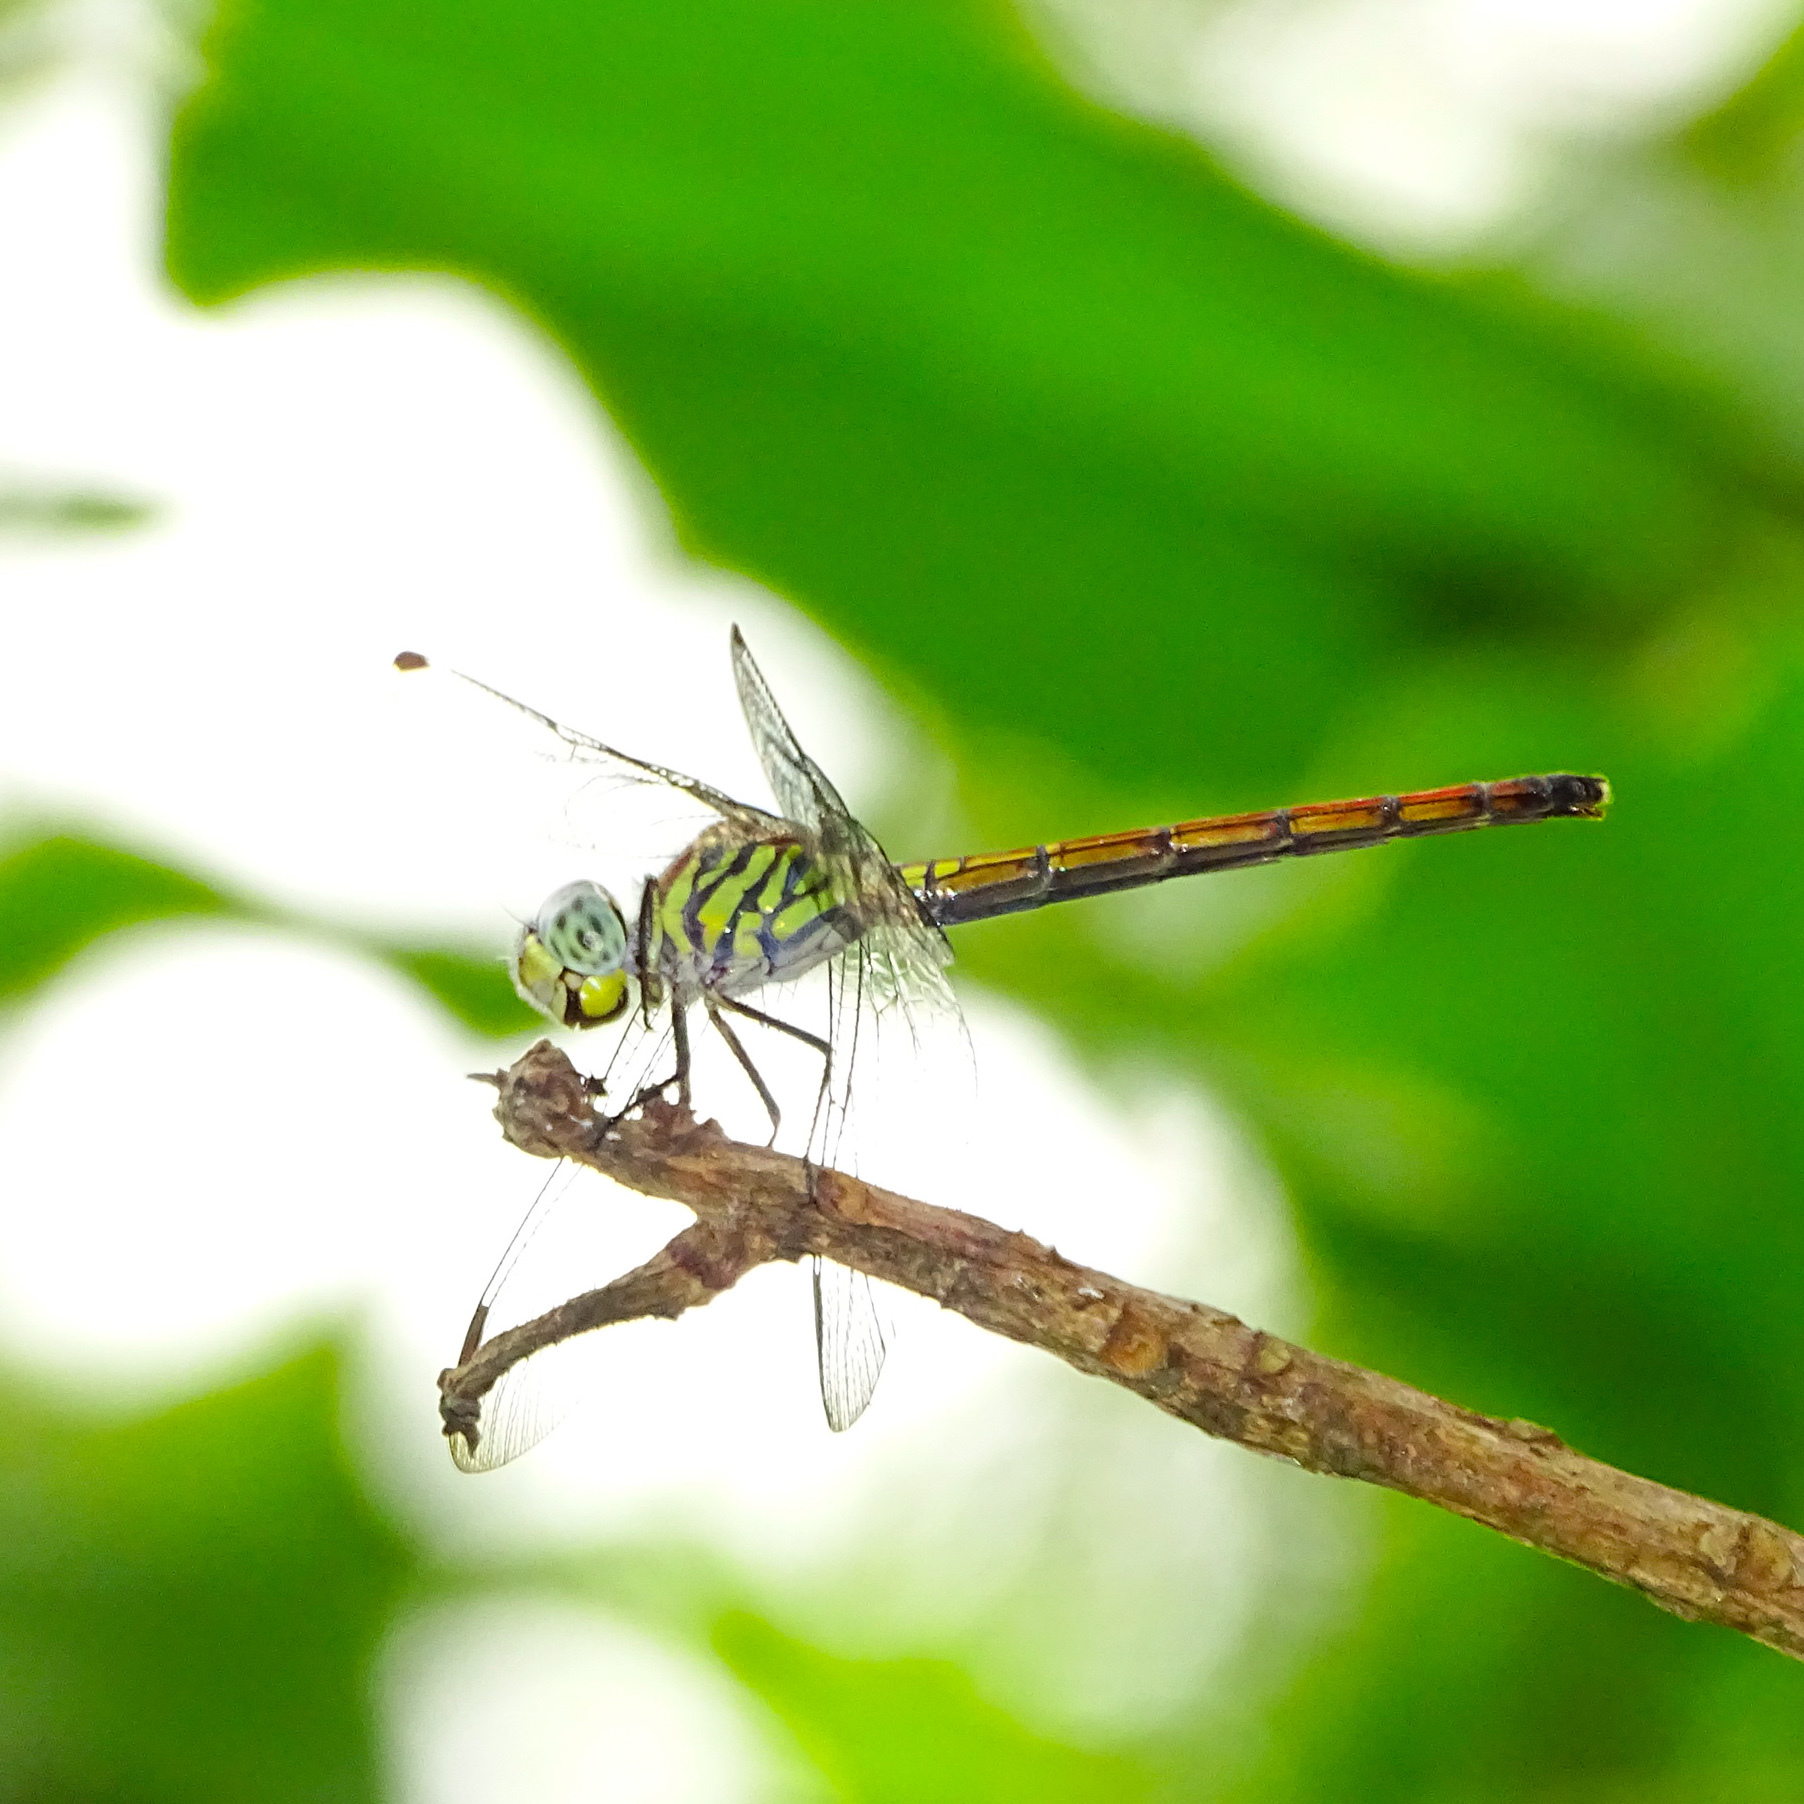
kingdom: Animalia
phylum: Arthropoda
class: Insecta
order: Odonata
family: Libellulidae
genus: Lathrecista
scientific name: Lathrecista asiatica
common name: Scarlet grenadier
